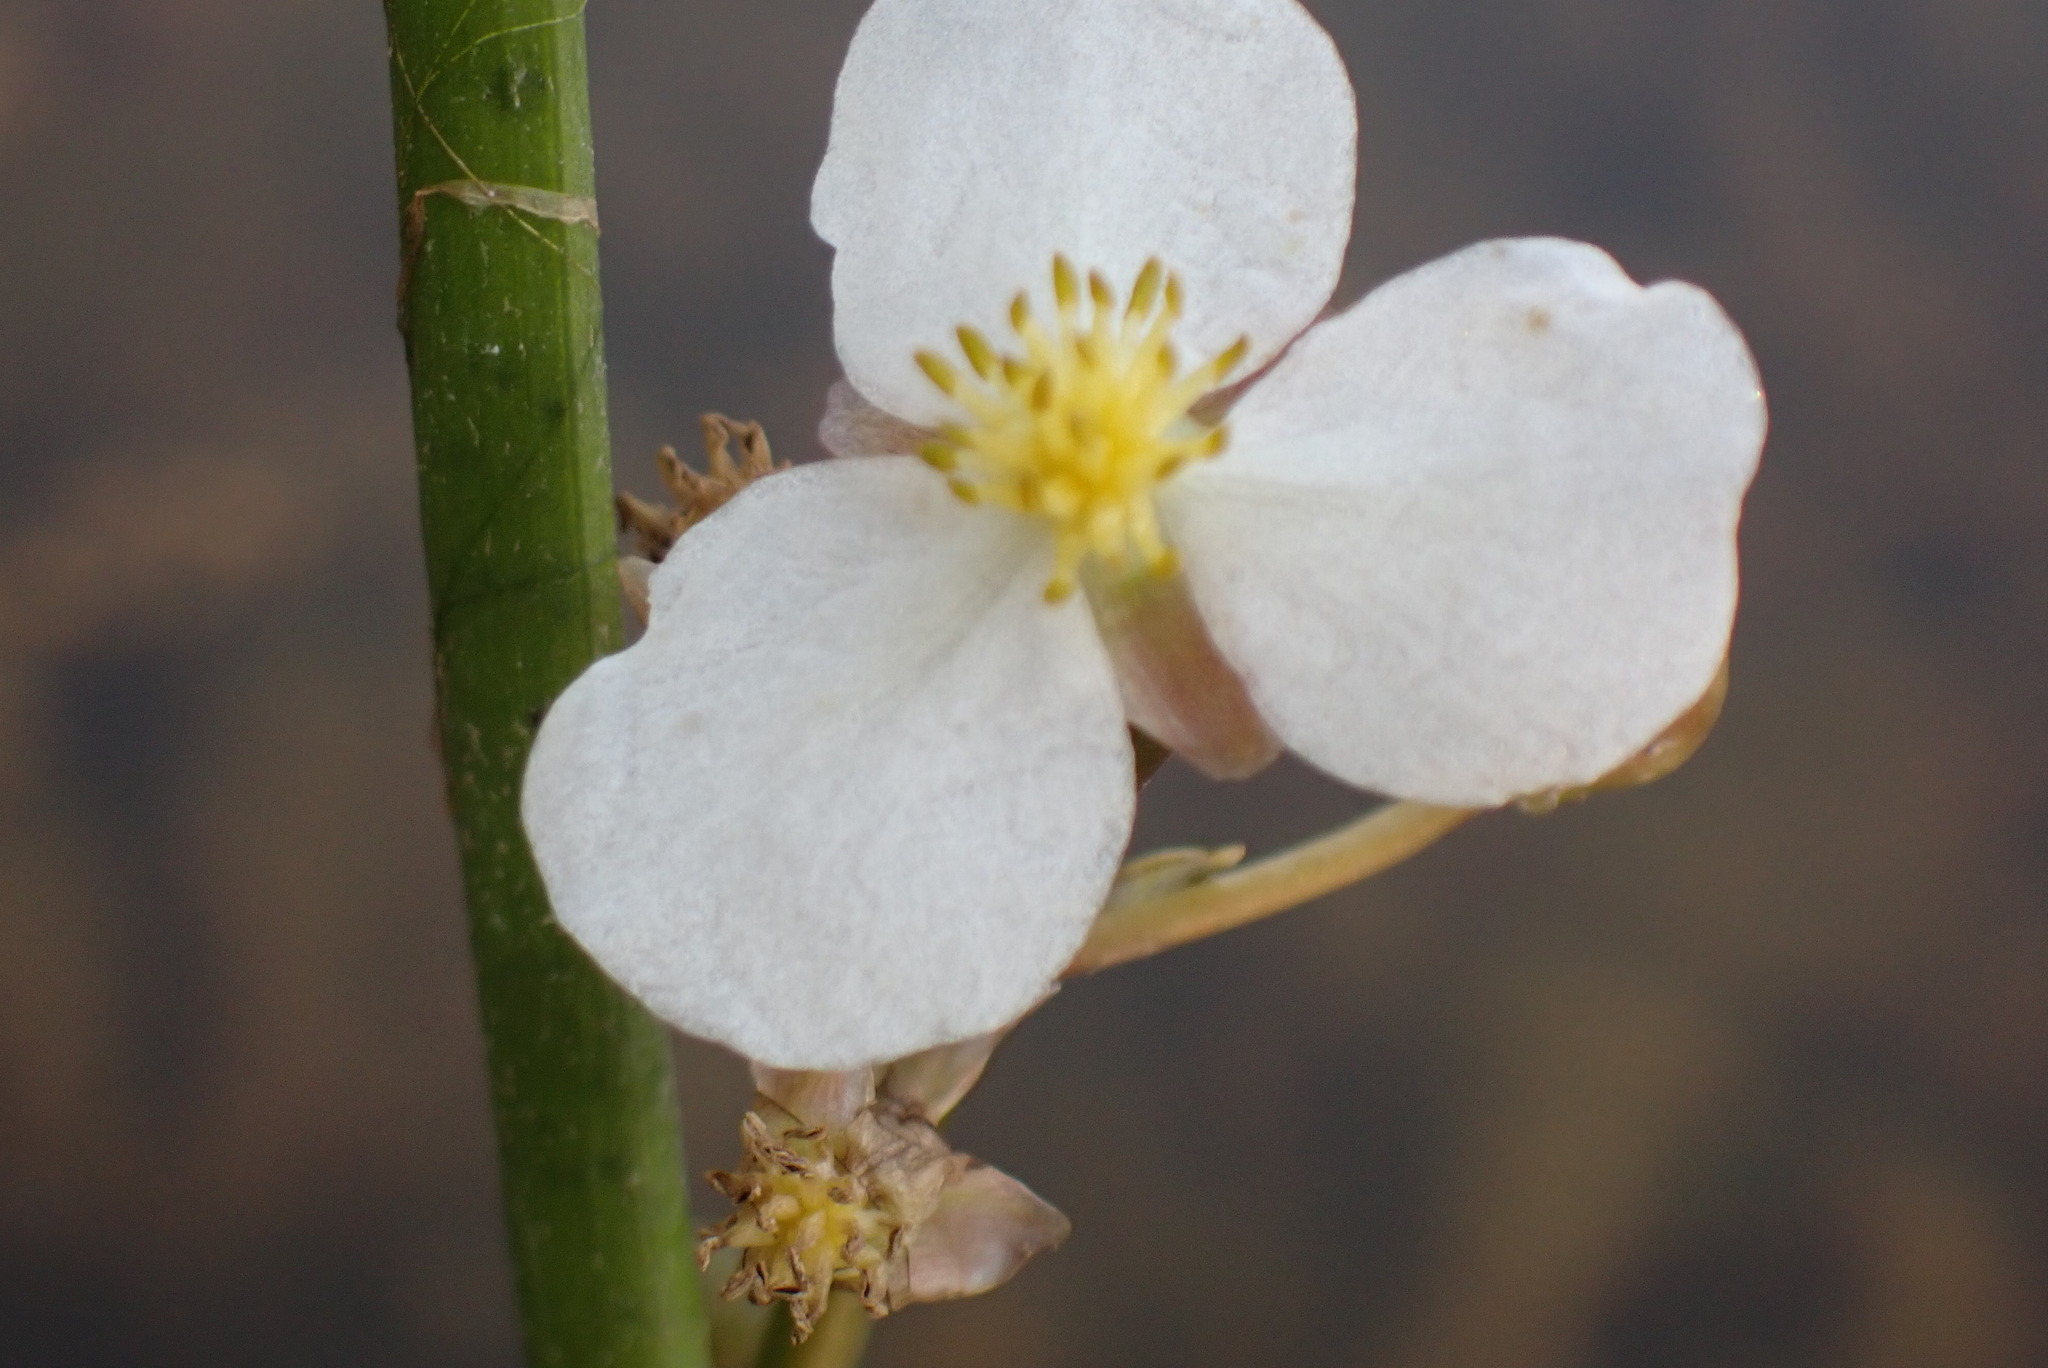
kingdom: Plantae
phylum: Tracheophyta
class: Liliopsida
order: Alismatales
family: Alismataceae
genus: Sagittaria
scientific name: Sagittaria cuneata
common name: Northern arrowhead
